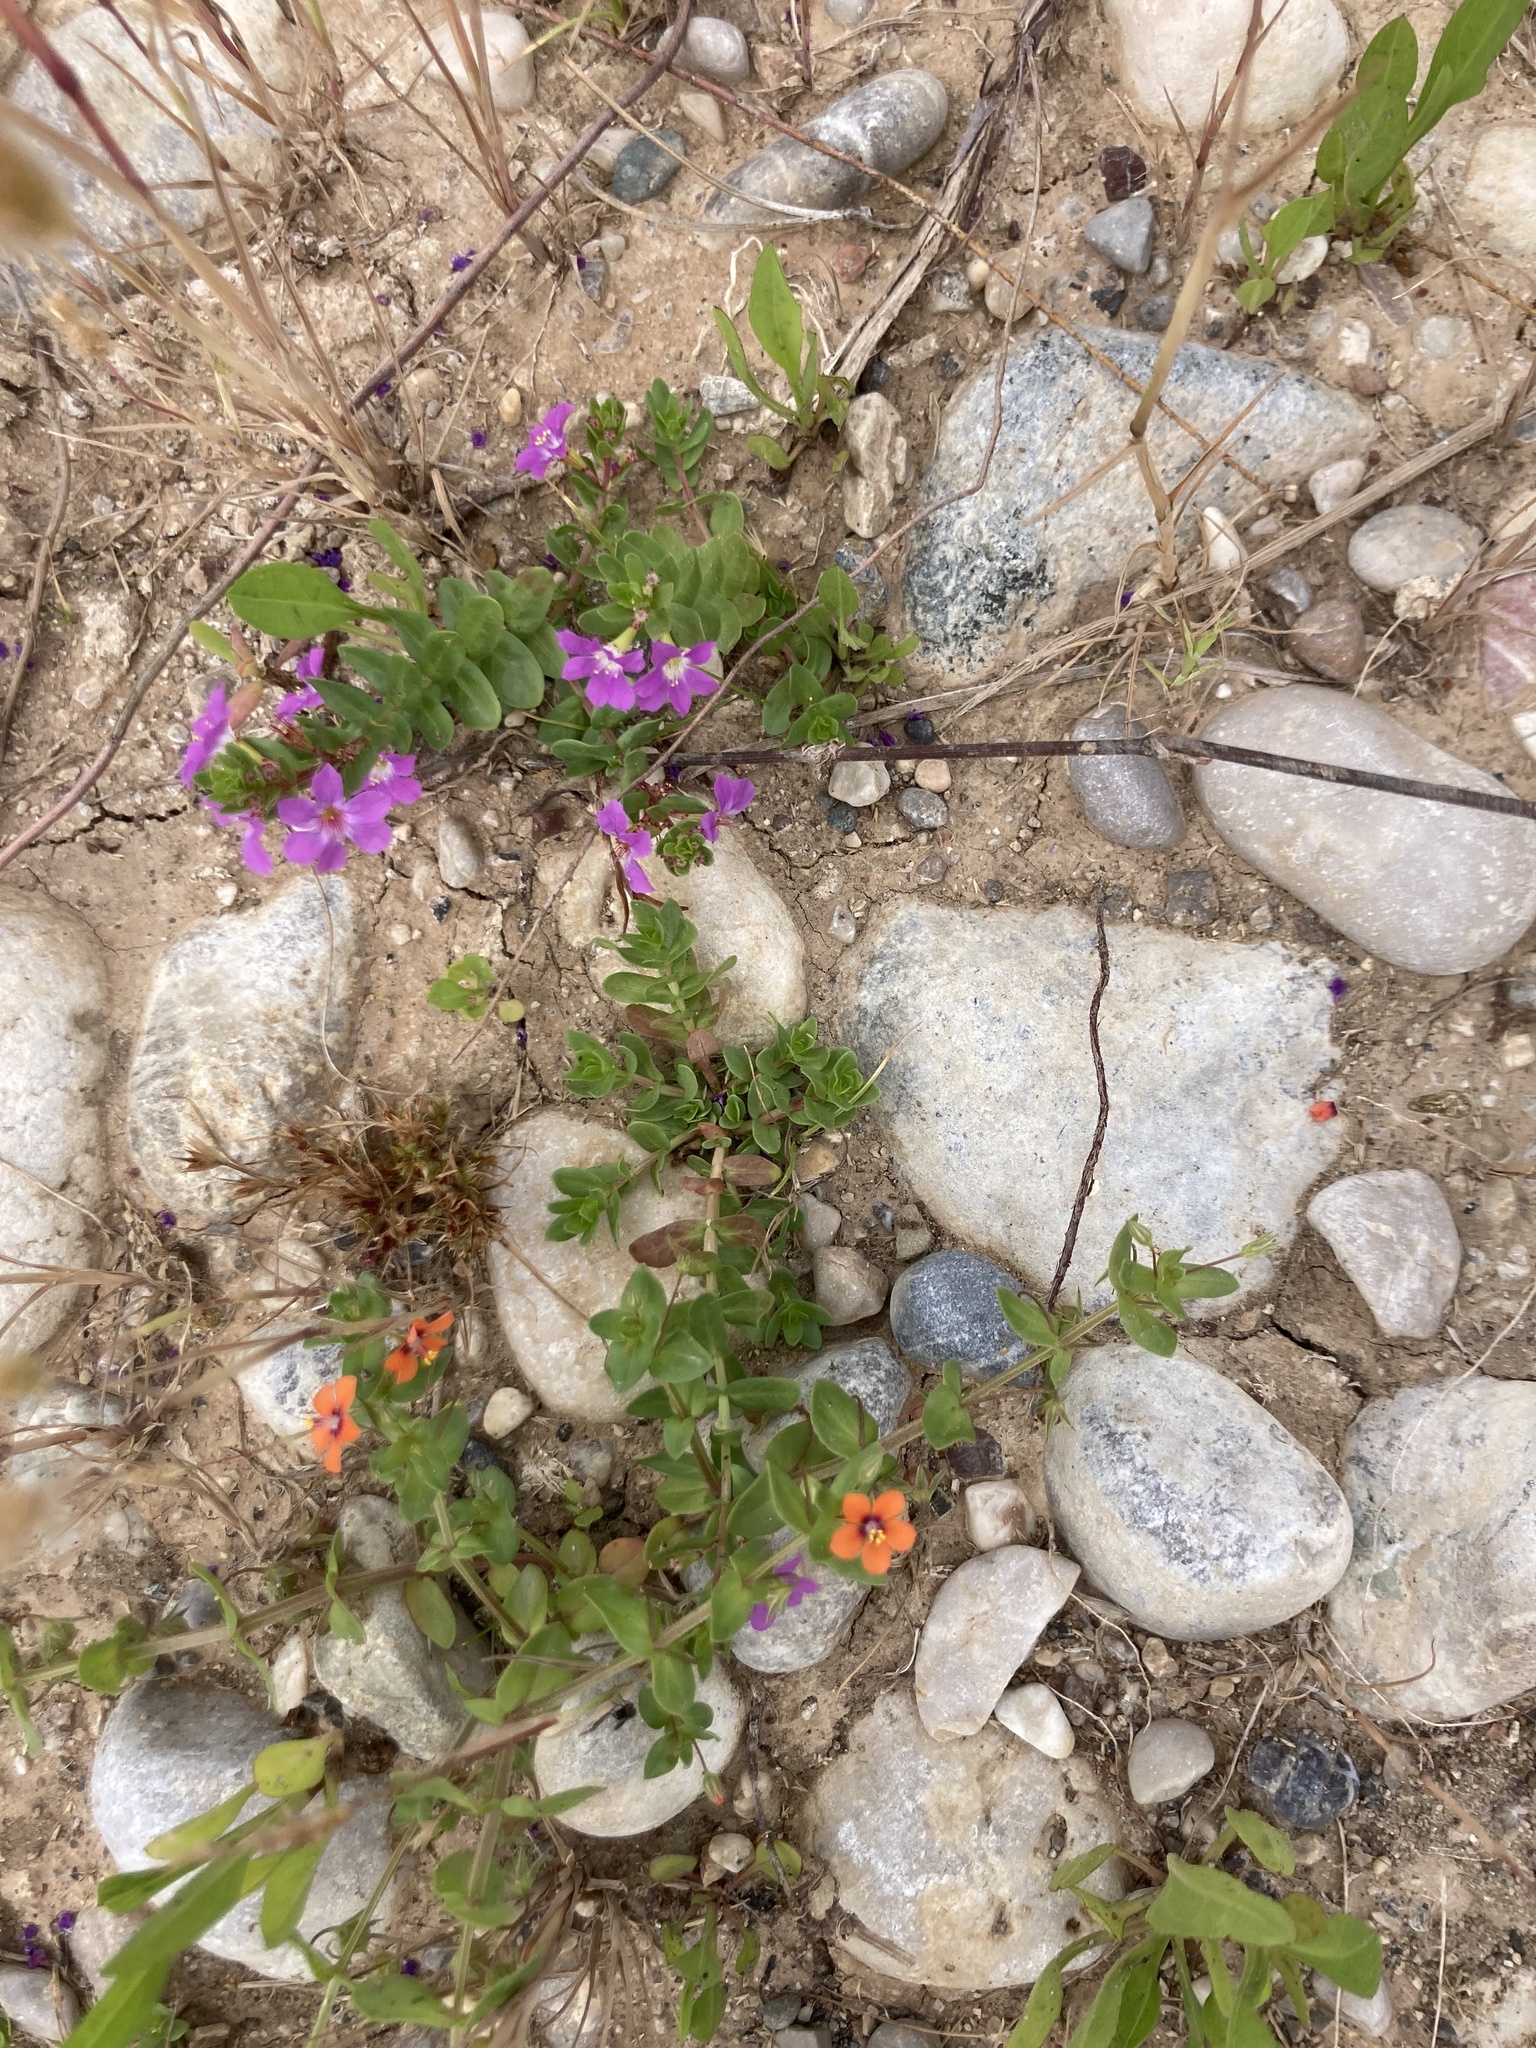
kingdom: Plantae
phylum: Tracheophyta
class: Magnoliopsida
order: Ericales
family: Primulaceae
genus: Lysimachia
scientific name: Lysimachia arvensis
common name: Scarlet pimpernel
